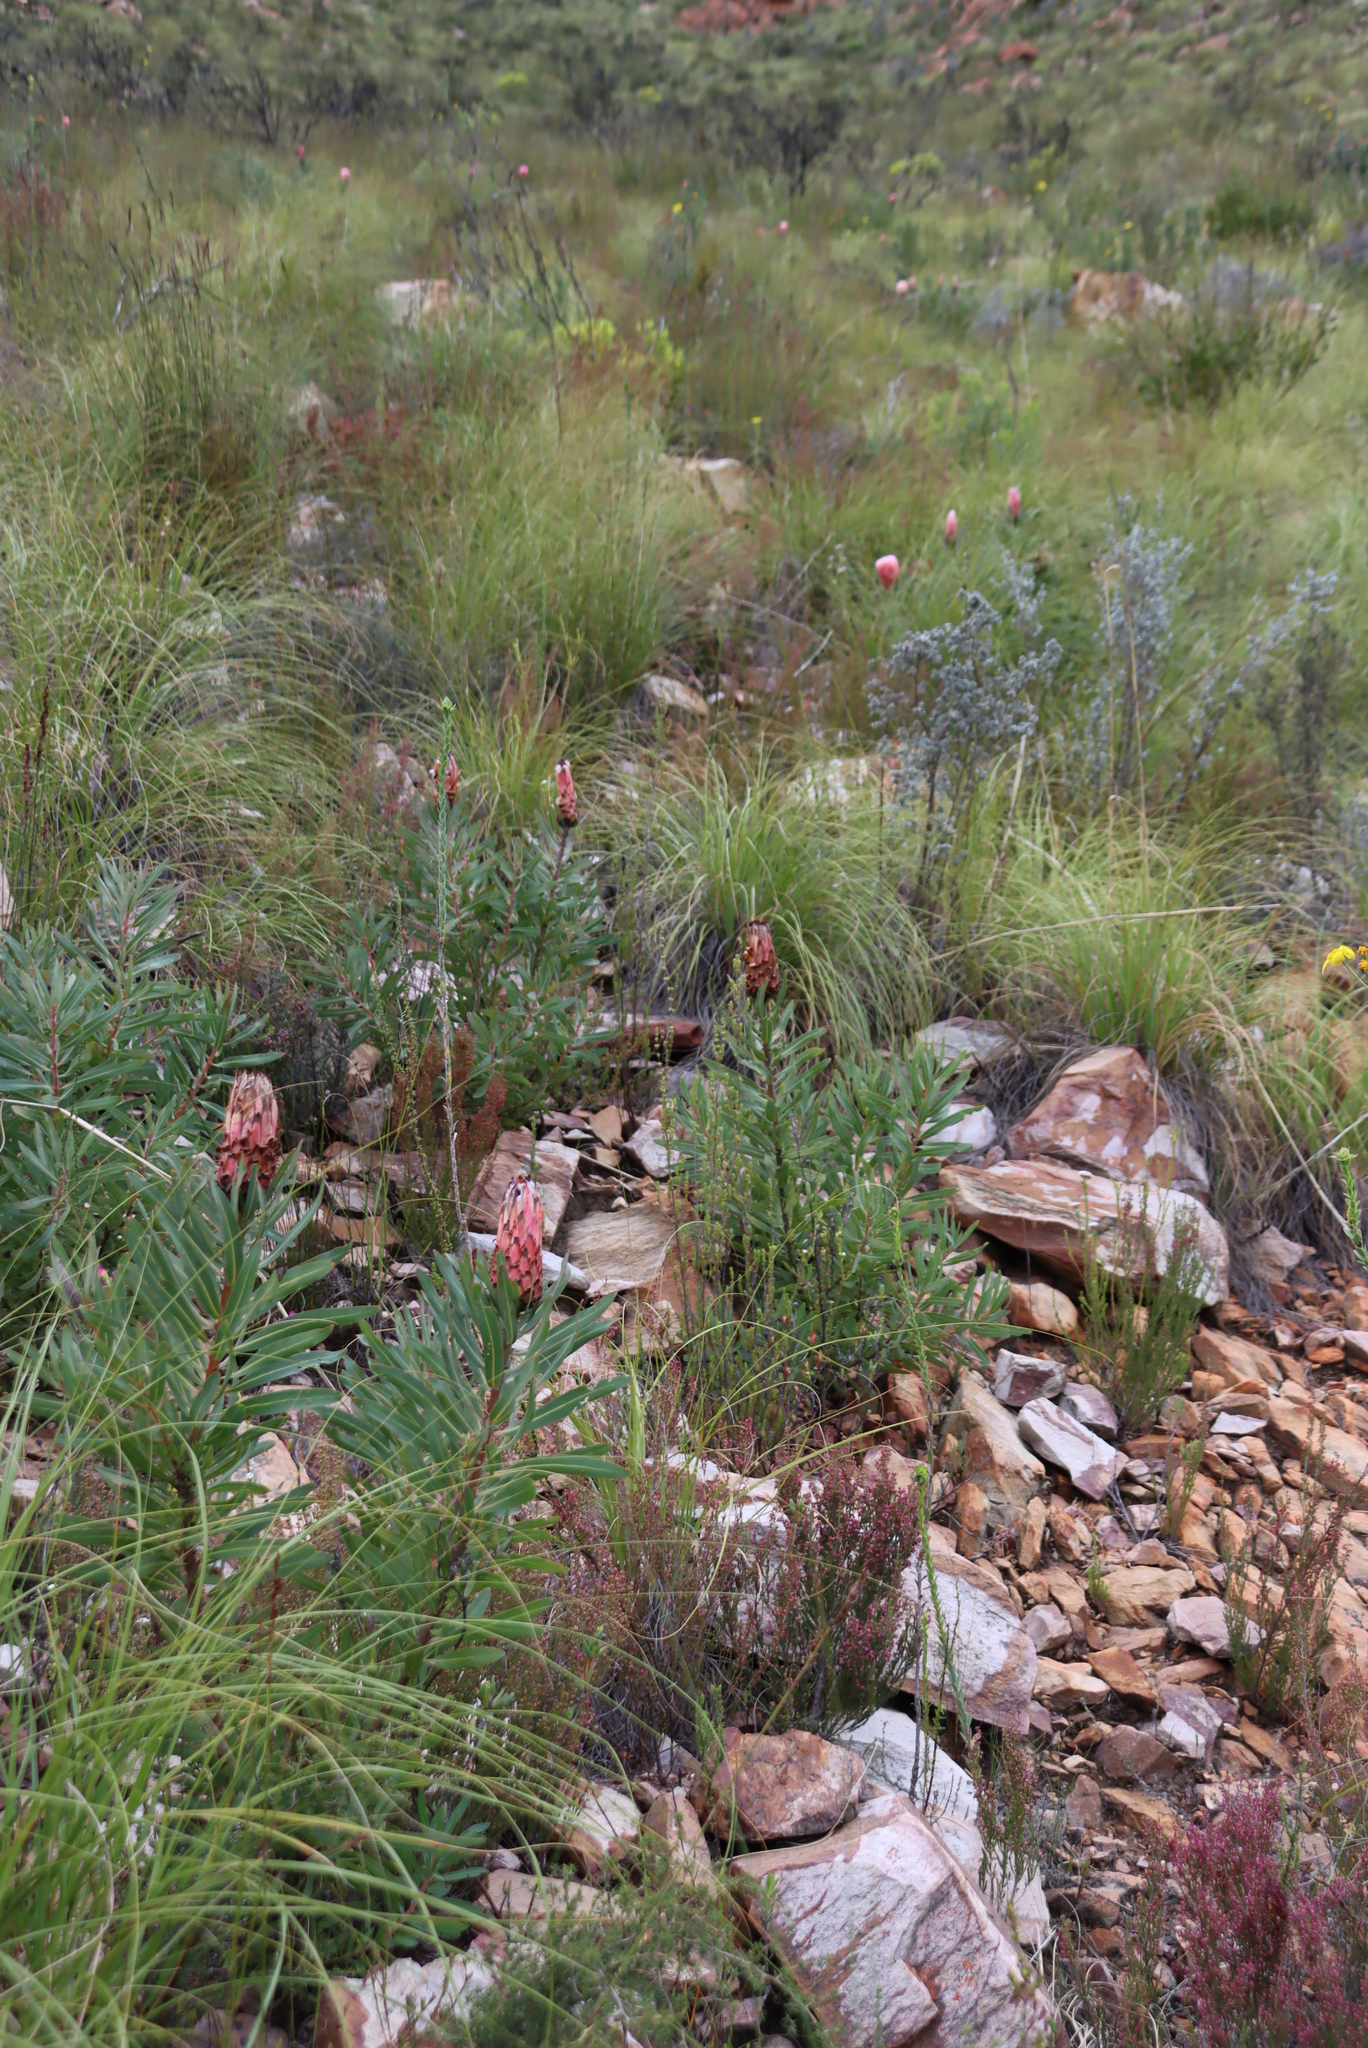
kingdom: Plantae
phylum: Tracheophyta
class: Magnoliopsida
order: Proteales
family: Proteaceae
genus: Protea
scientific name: Protea neriifolia
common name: Blue sugarbush
